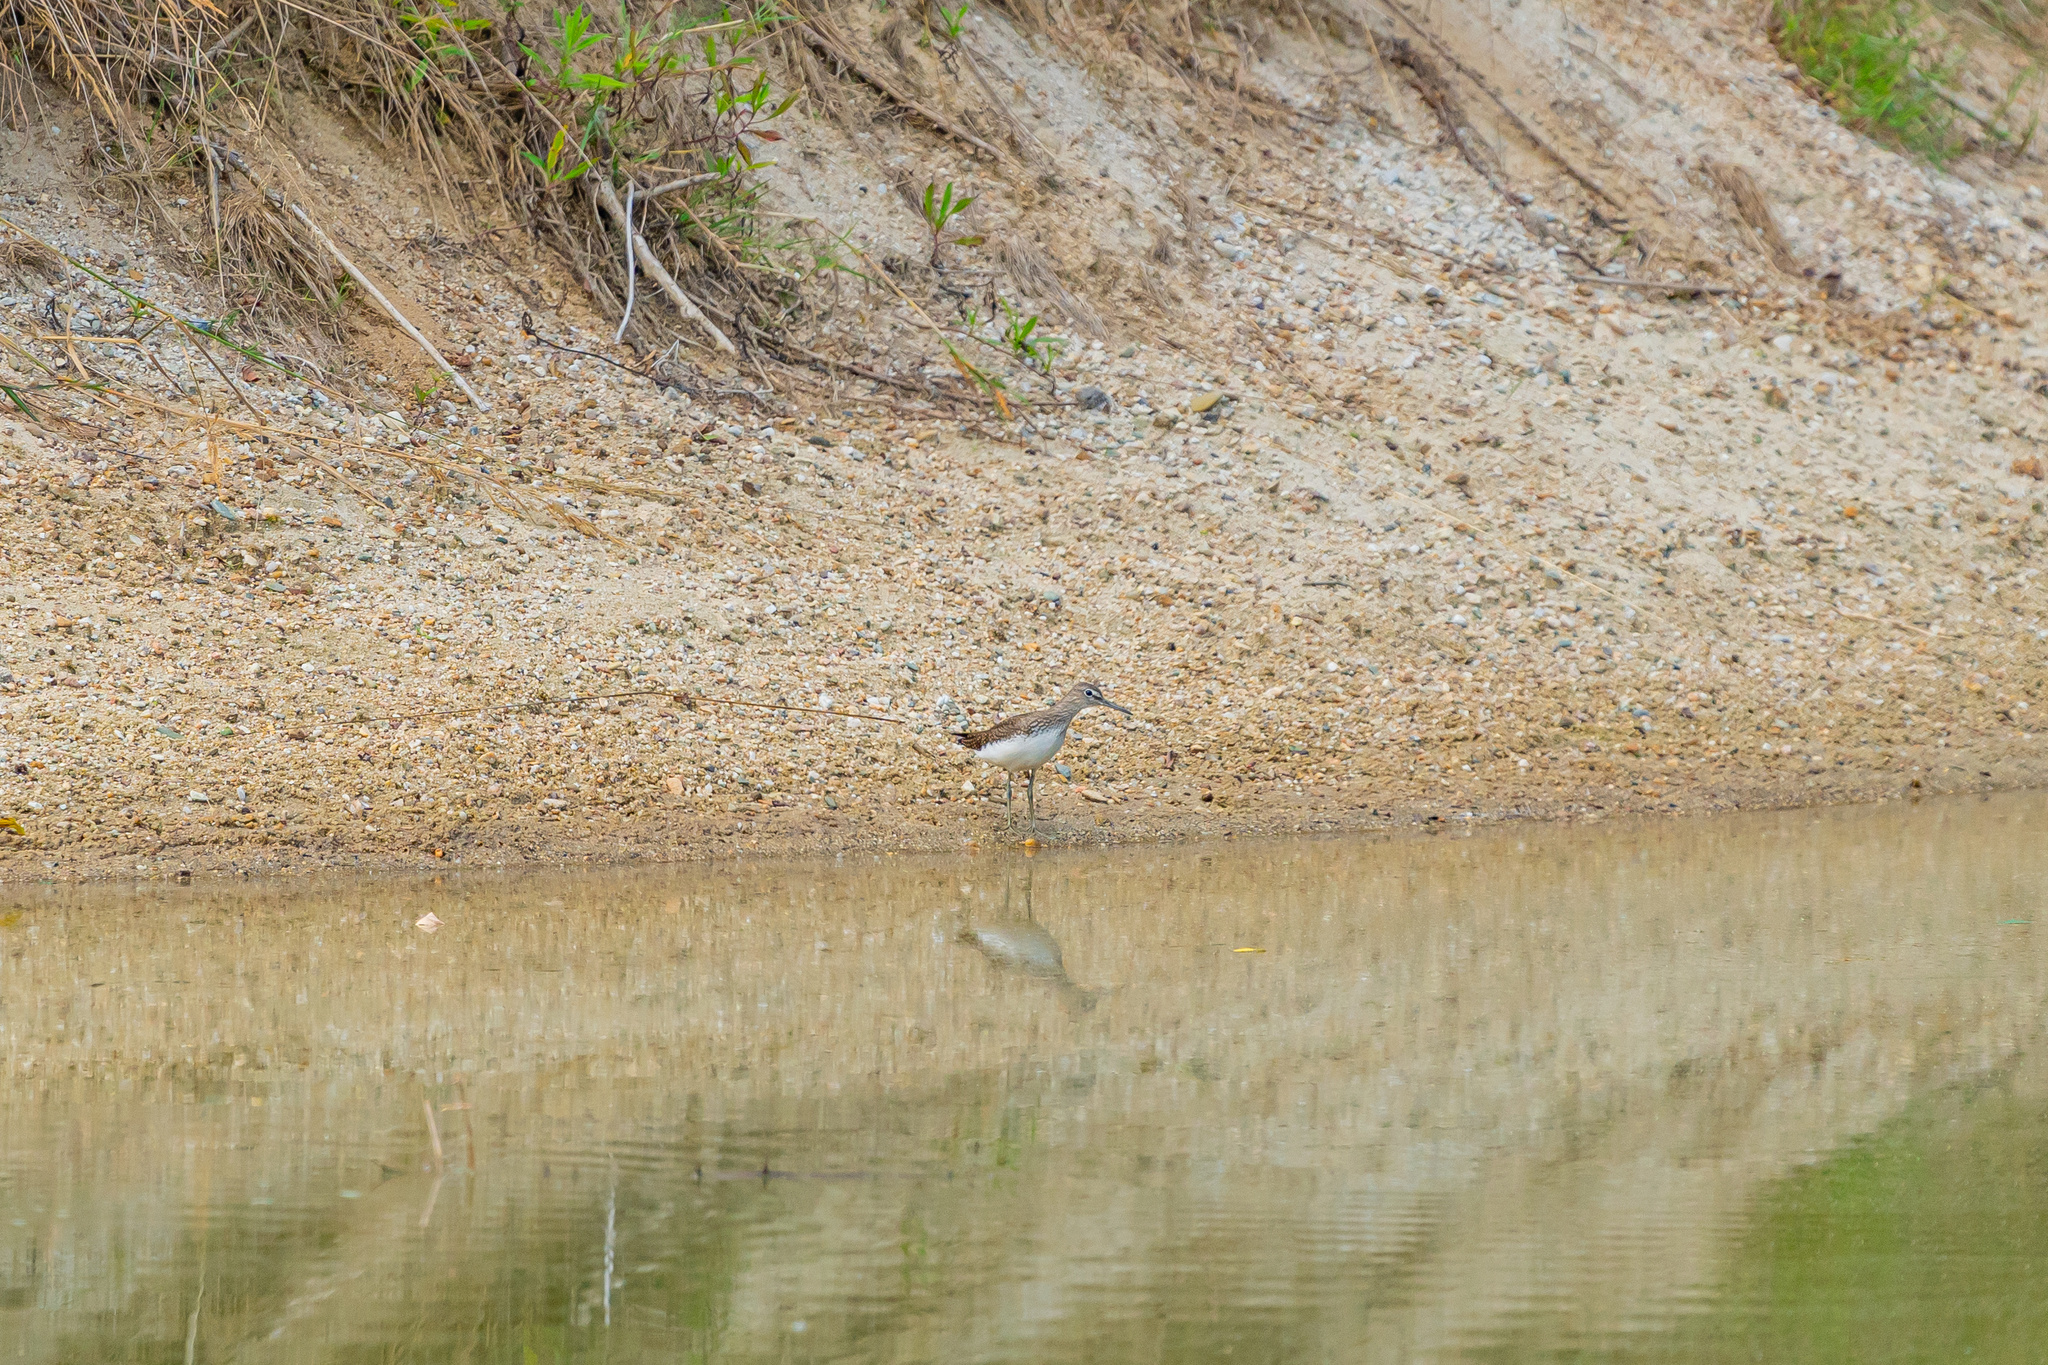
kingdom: Animalia
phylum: Chordata
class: Aves
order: Charadriiformes
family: Scolopacidae
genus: Tringa
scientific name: Tringa ochropus
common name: Green sandpiper
